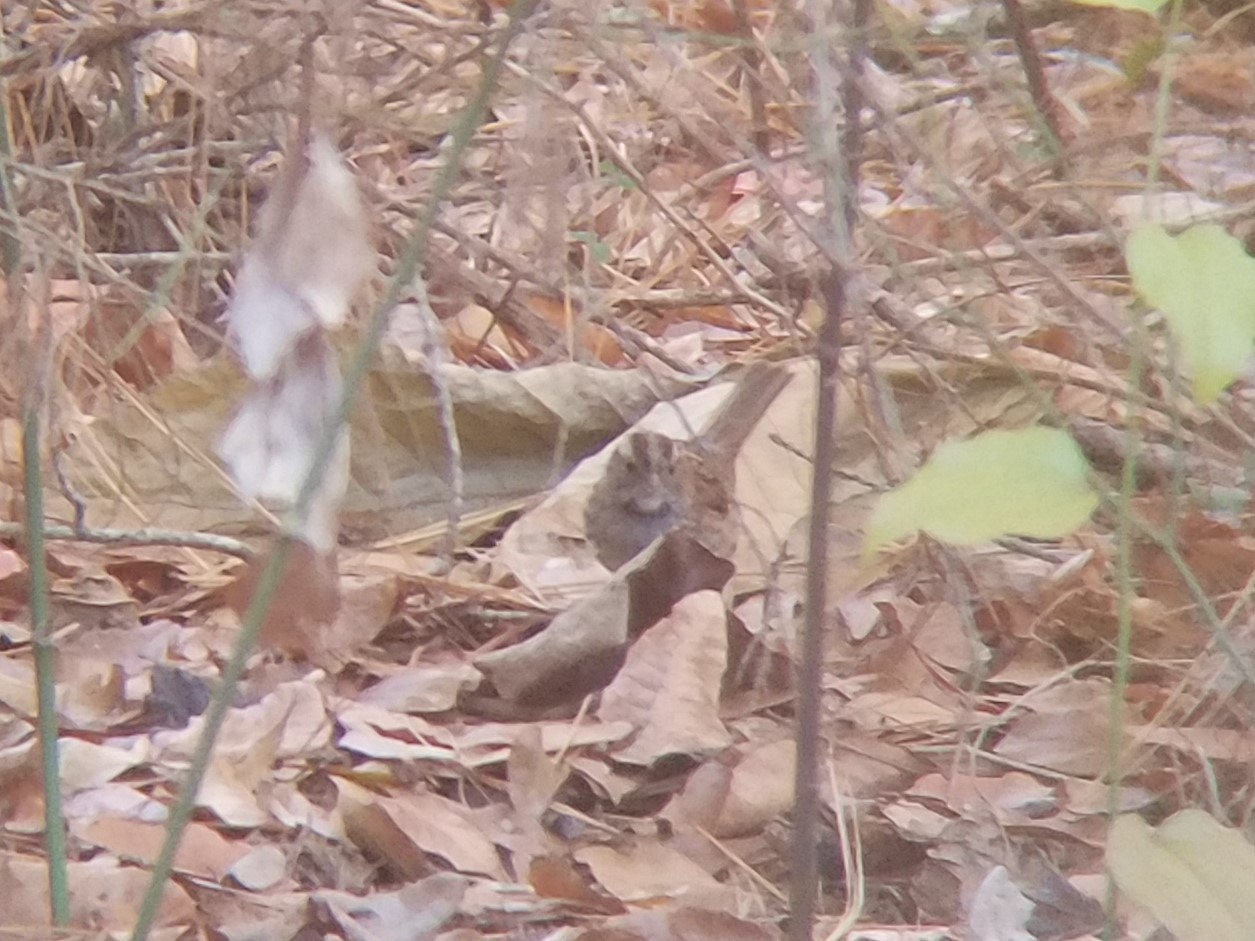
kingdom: Animalia
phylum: Chordata
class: Aves
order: Passeriformes
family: Passerellidae
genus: Zonotrichia
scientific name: Zonotrichia albicollis
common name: White-throated sparrow
